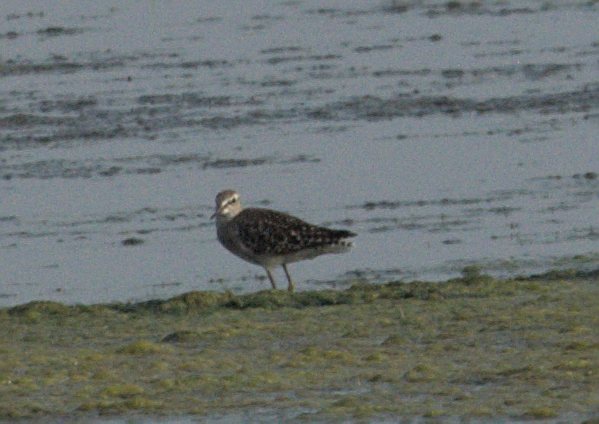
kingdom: Animalia
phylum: Chordata
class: Aves
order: Charadriiformes
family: Scolopacidae
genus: Tringa
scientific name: Tringa glareola
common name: Wood sandpiper
